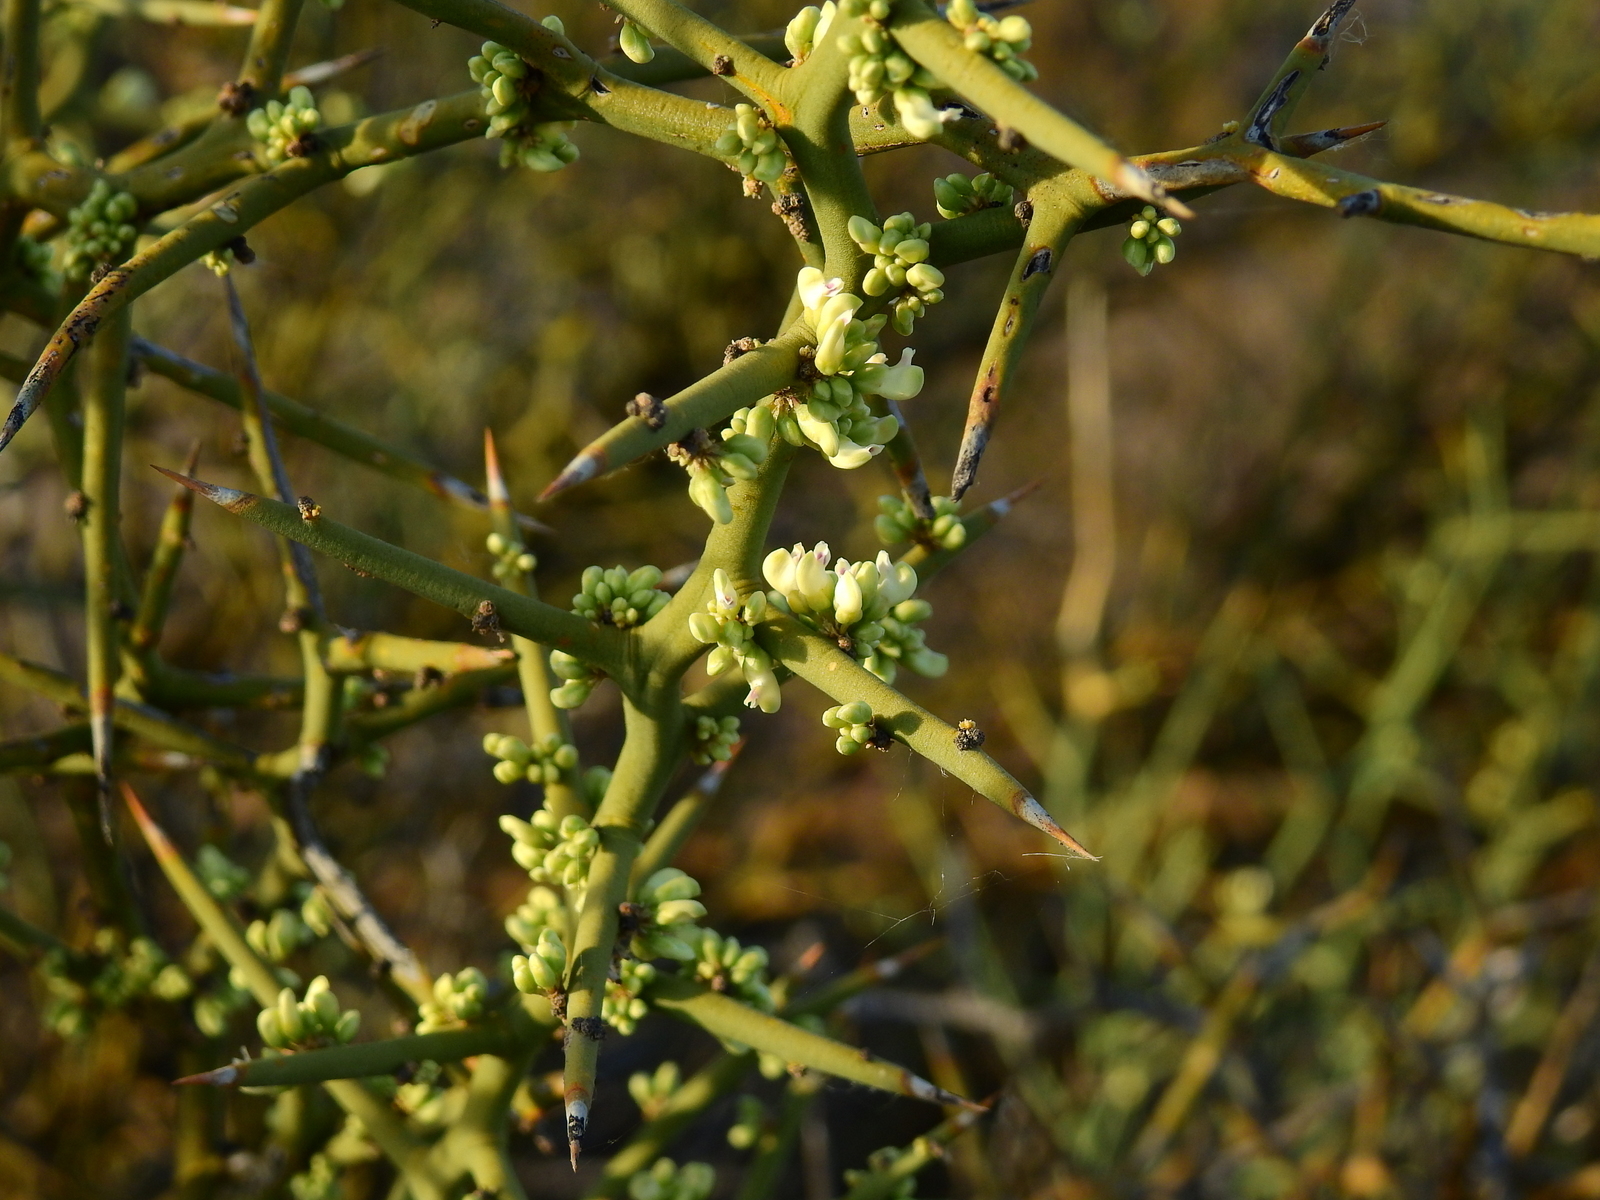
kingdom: Plantae
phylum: Tracheophyta
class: Magnoliopsida
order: Fabales
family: Polygalaceae
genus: Bredemeyera
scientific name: Bredemeyera colletioides
